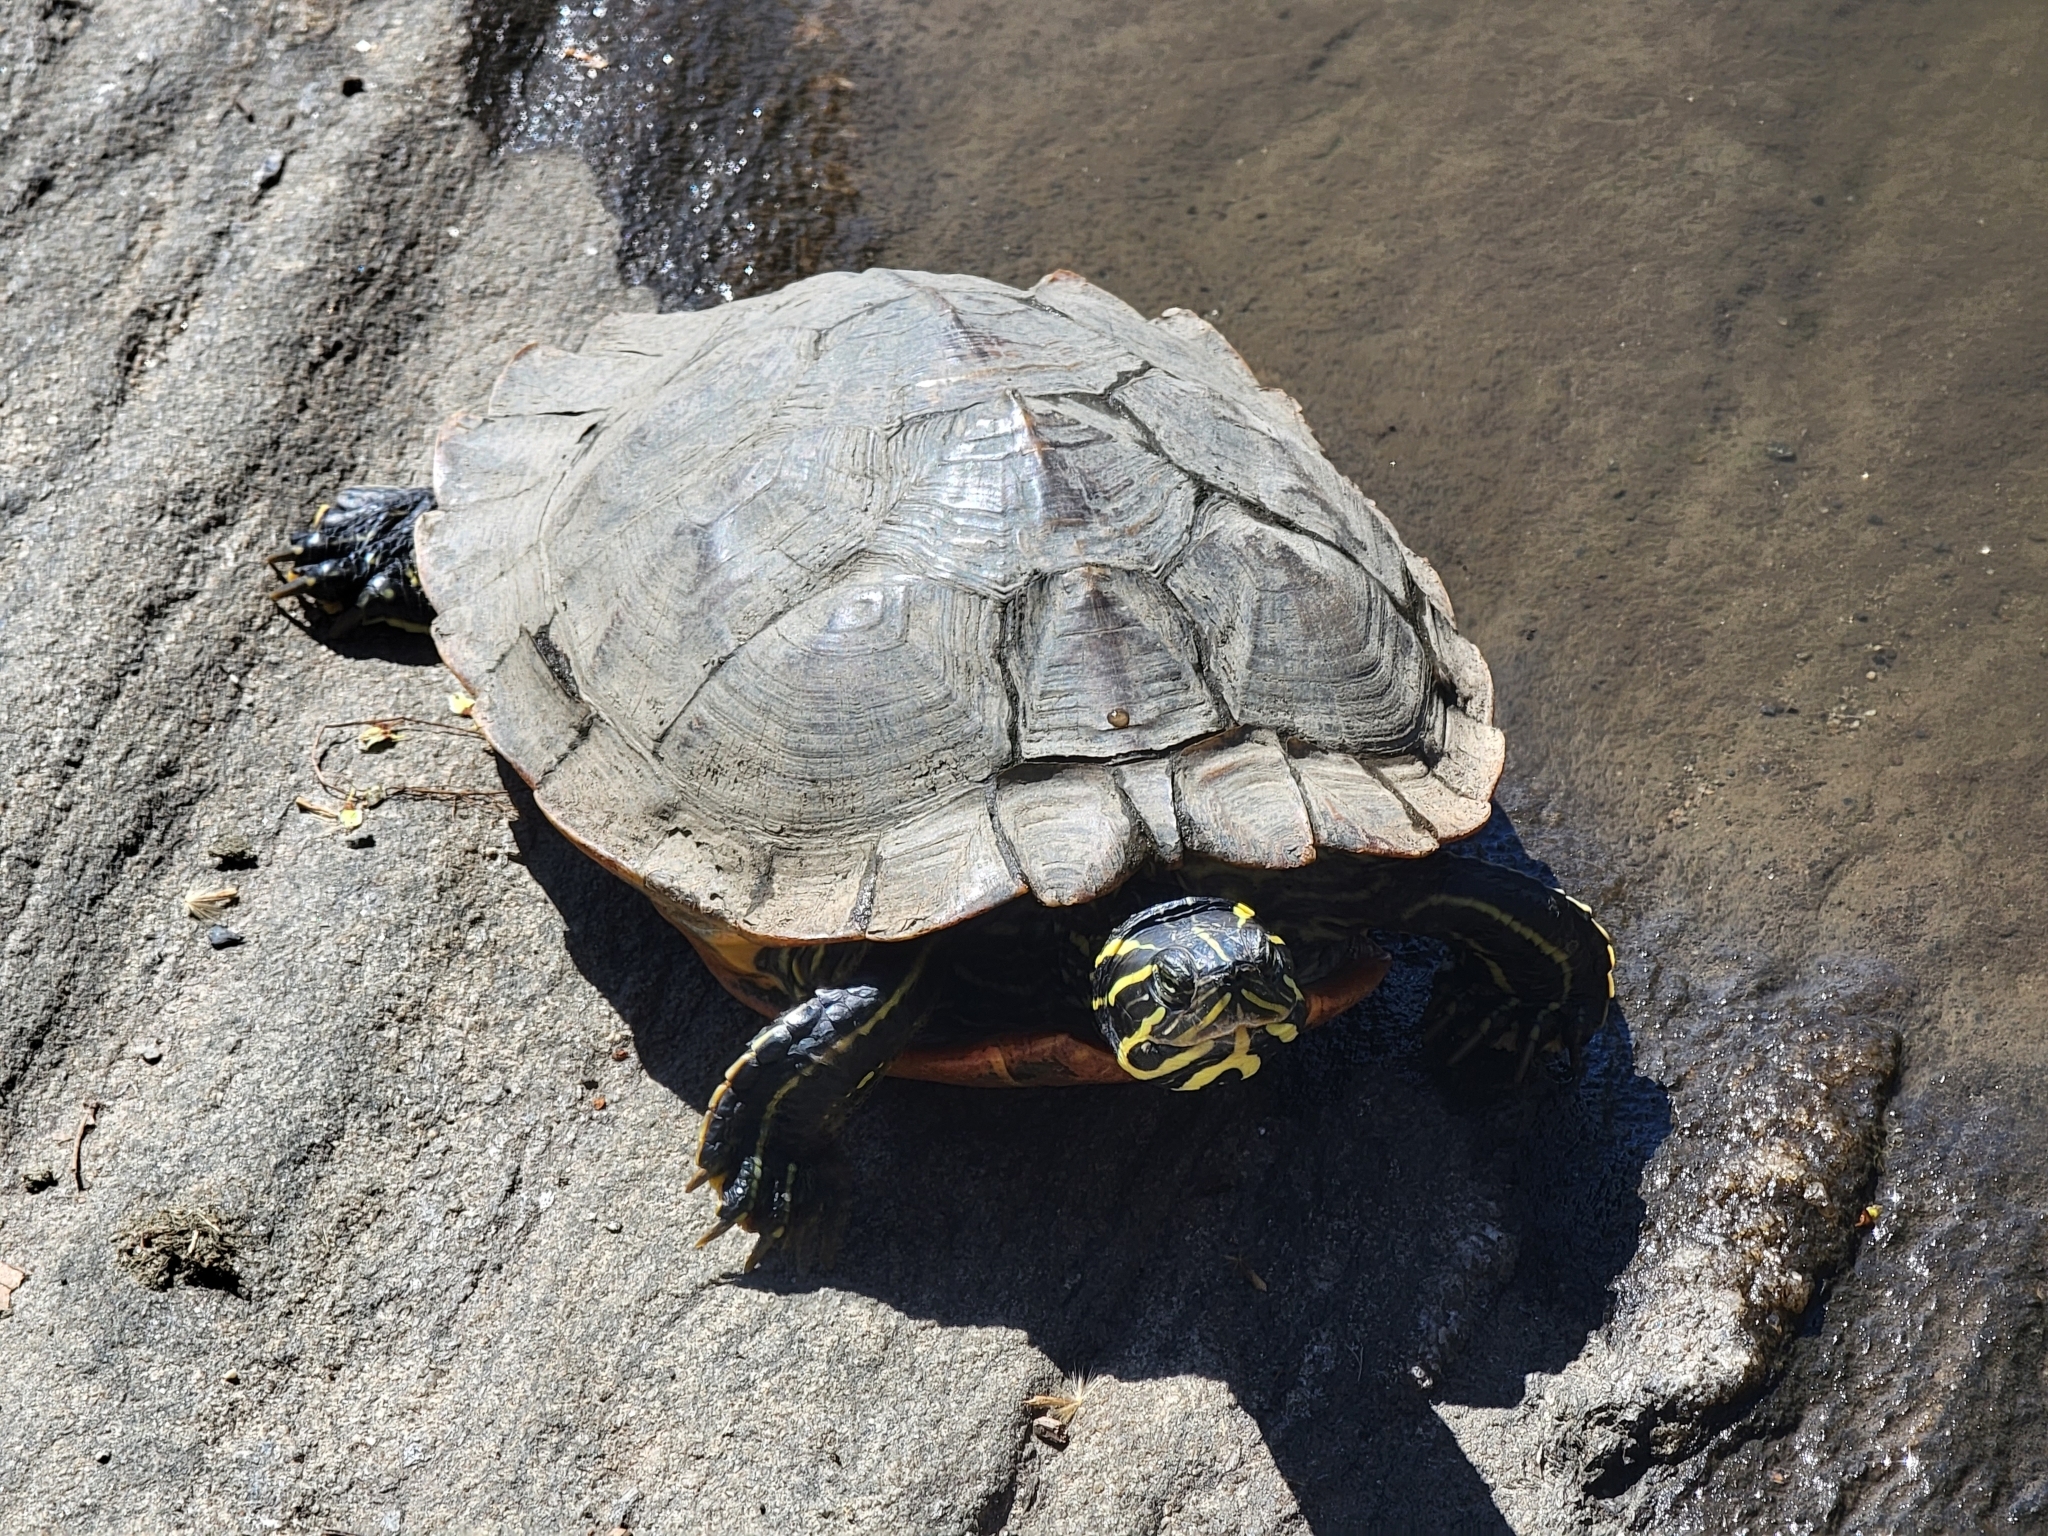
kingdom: Animalia
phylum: Chordata
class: Testudines
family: Emydidae
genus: Trachemys
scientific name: Trachemys scripta
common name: Slider
